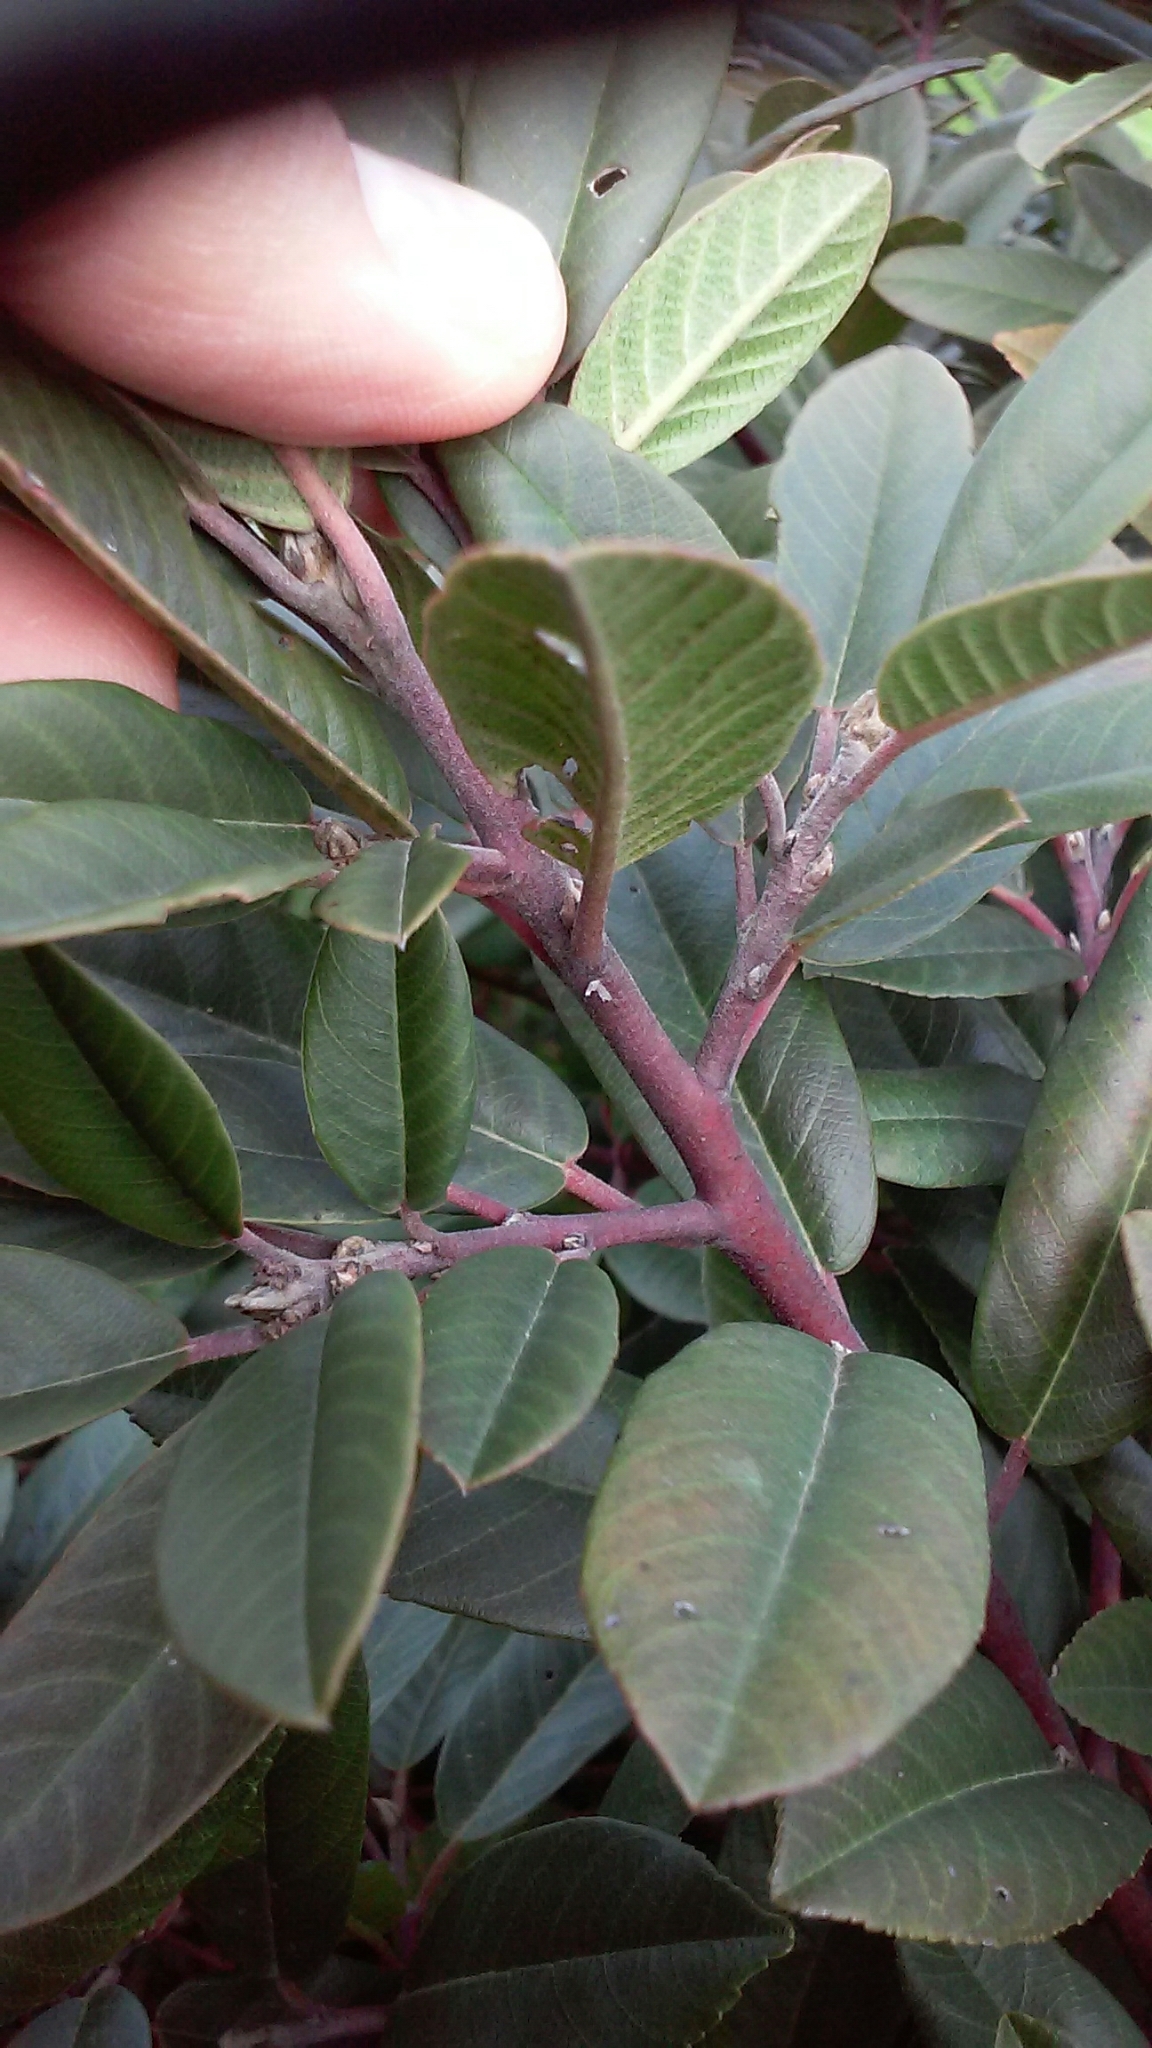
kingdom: Plantae
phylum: Tracheophyta
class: Magnoliopsida
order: Rosales
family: Rhamnaceae
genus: Frangula
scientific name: Frangula californica
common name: California buckthorn
